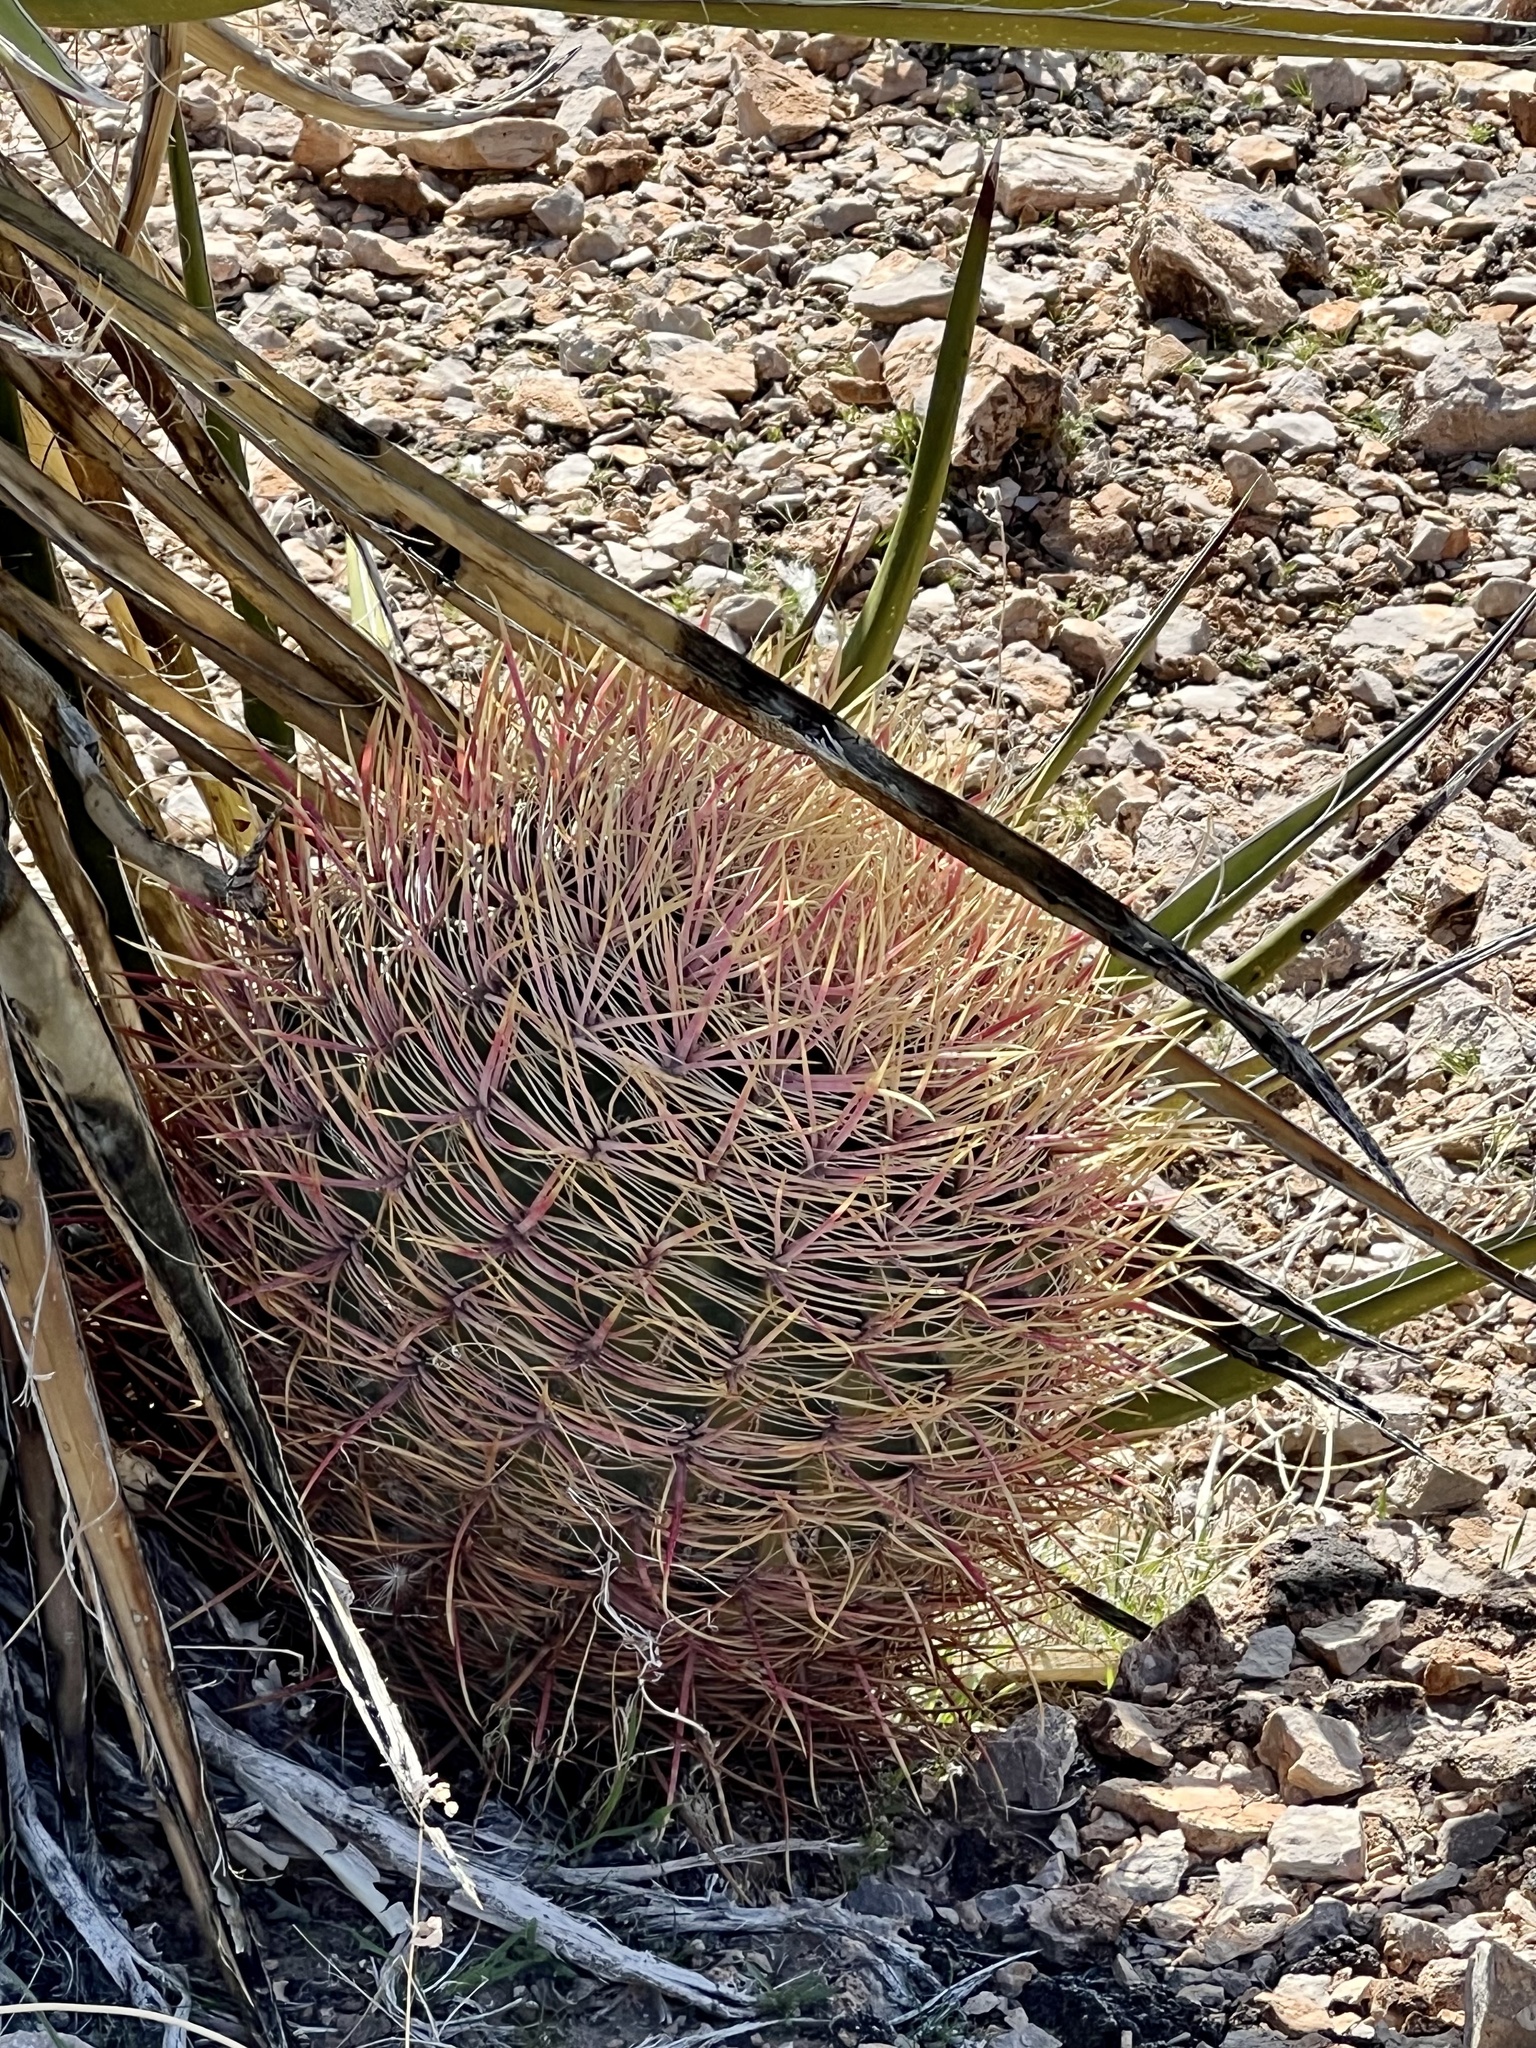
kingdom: Plantae
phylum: Tracheophyta
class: Magnoliopsida
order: Caryophyllales
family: Cactaceae
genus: Ferocactus
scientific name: Ferocactus cylindraceus
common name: California barrel cactus
